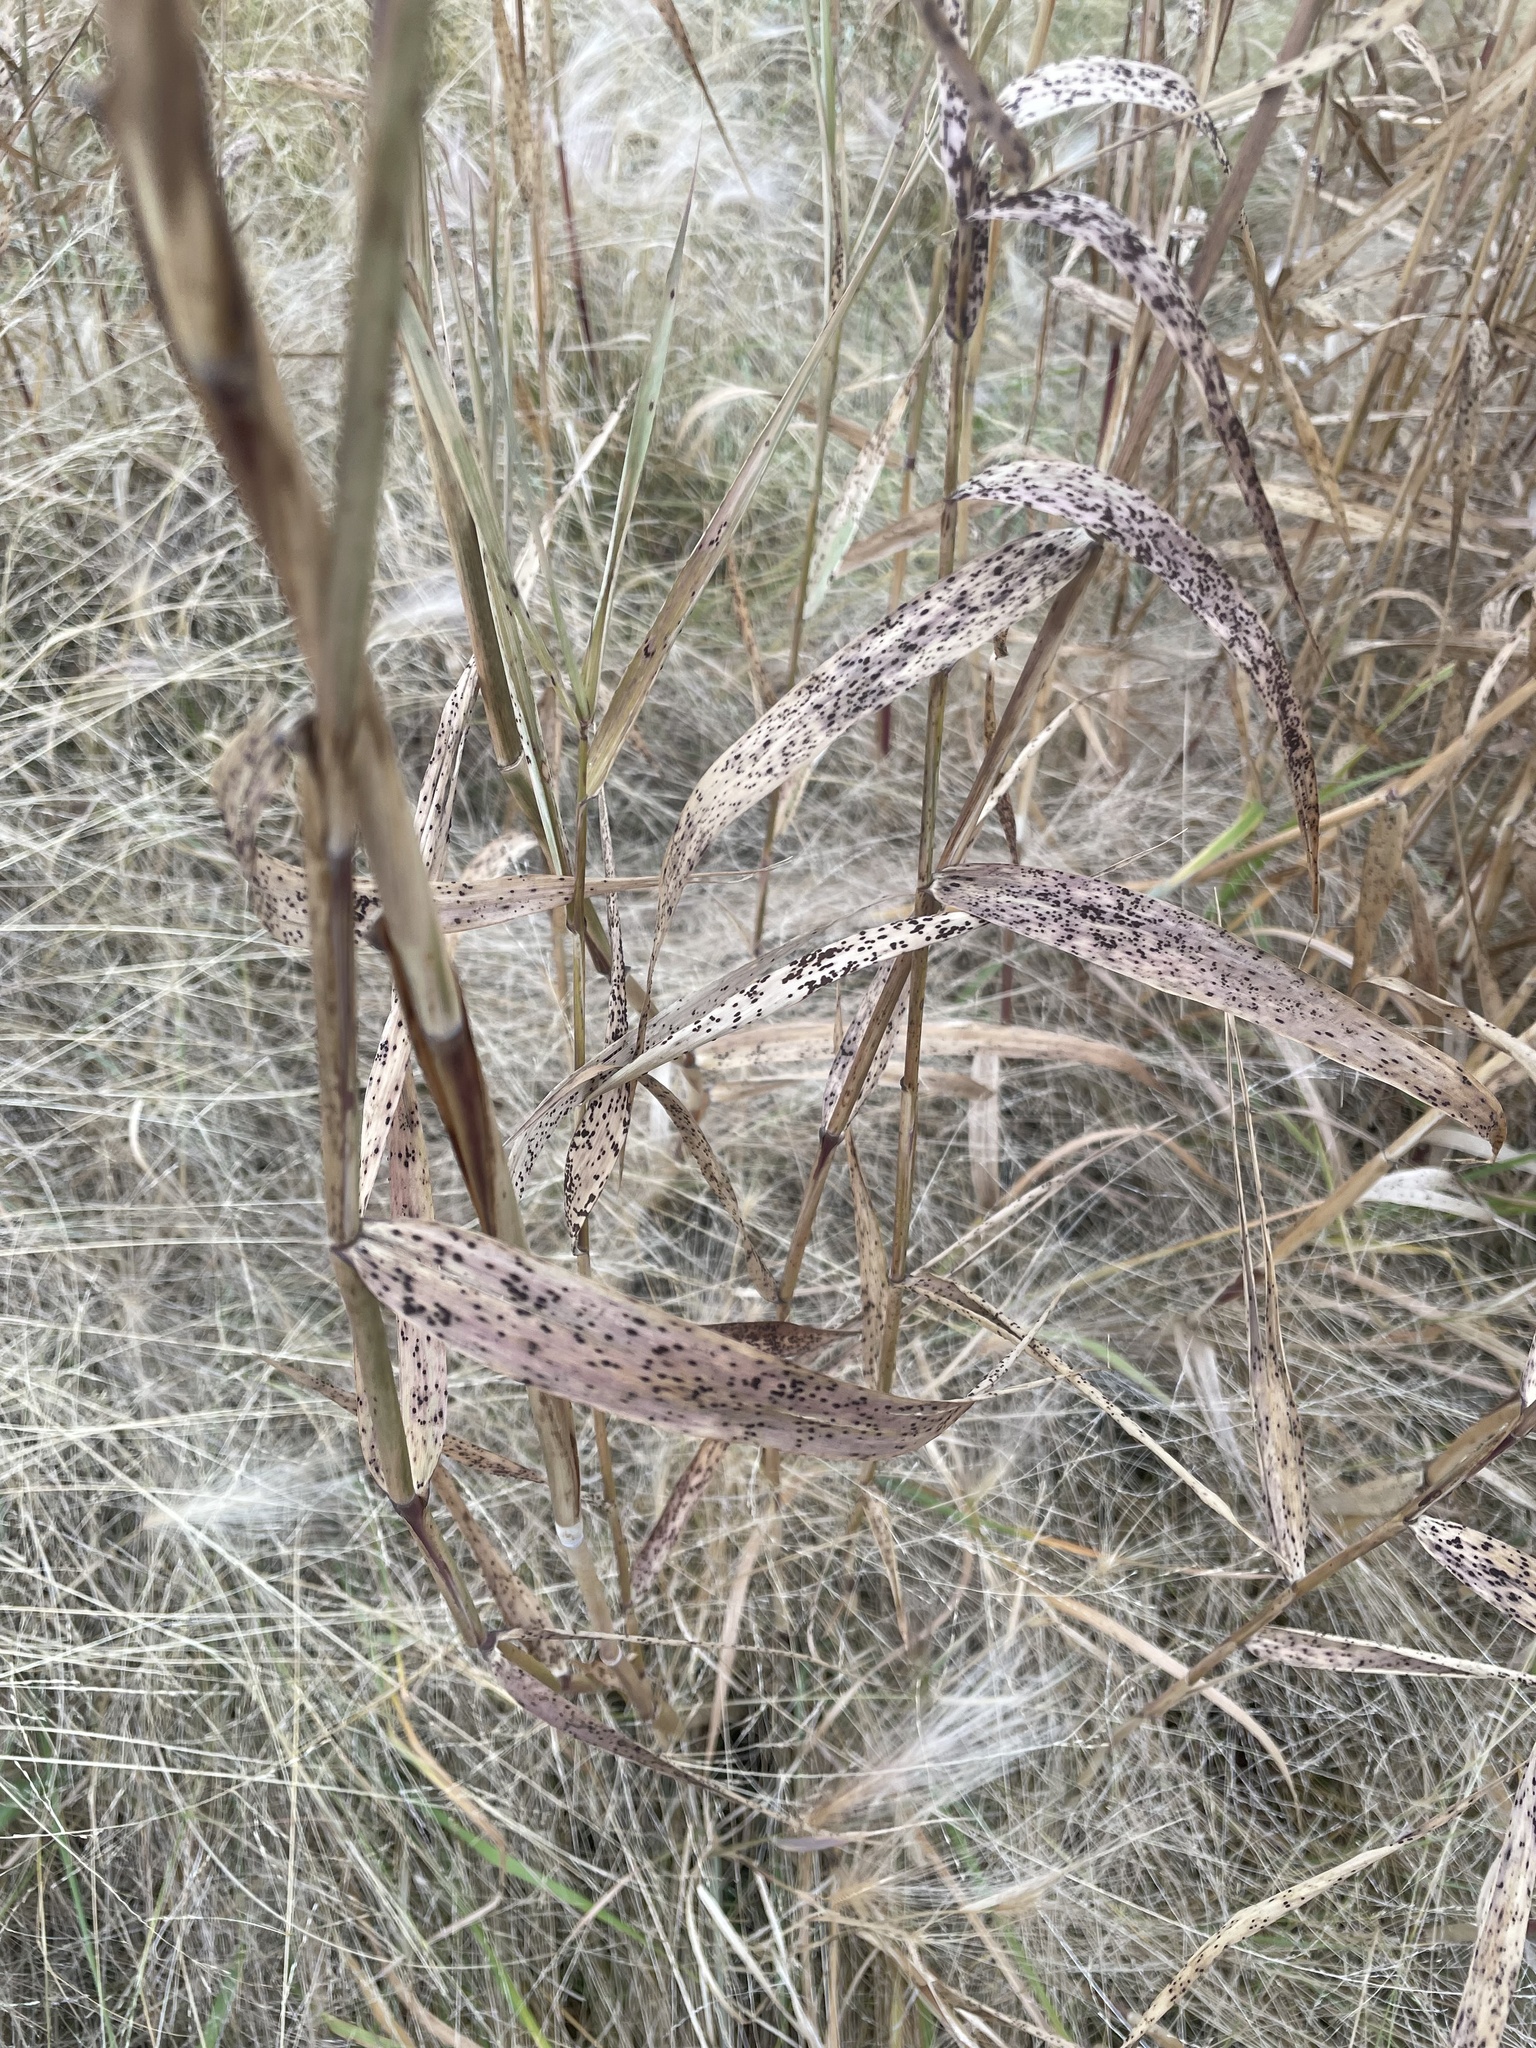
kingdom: Plantae
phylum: Tracheophyta
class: Liliopsida
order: Poales
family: Poaceae
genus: Phragmites
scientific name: Phragmites australis
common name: Common reed
